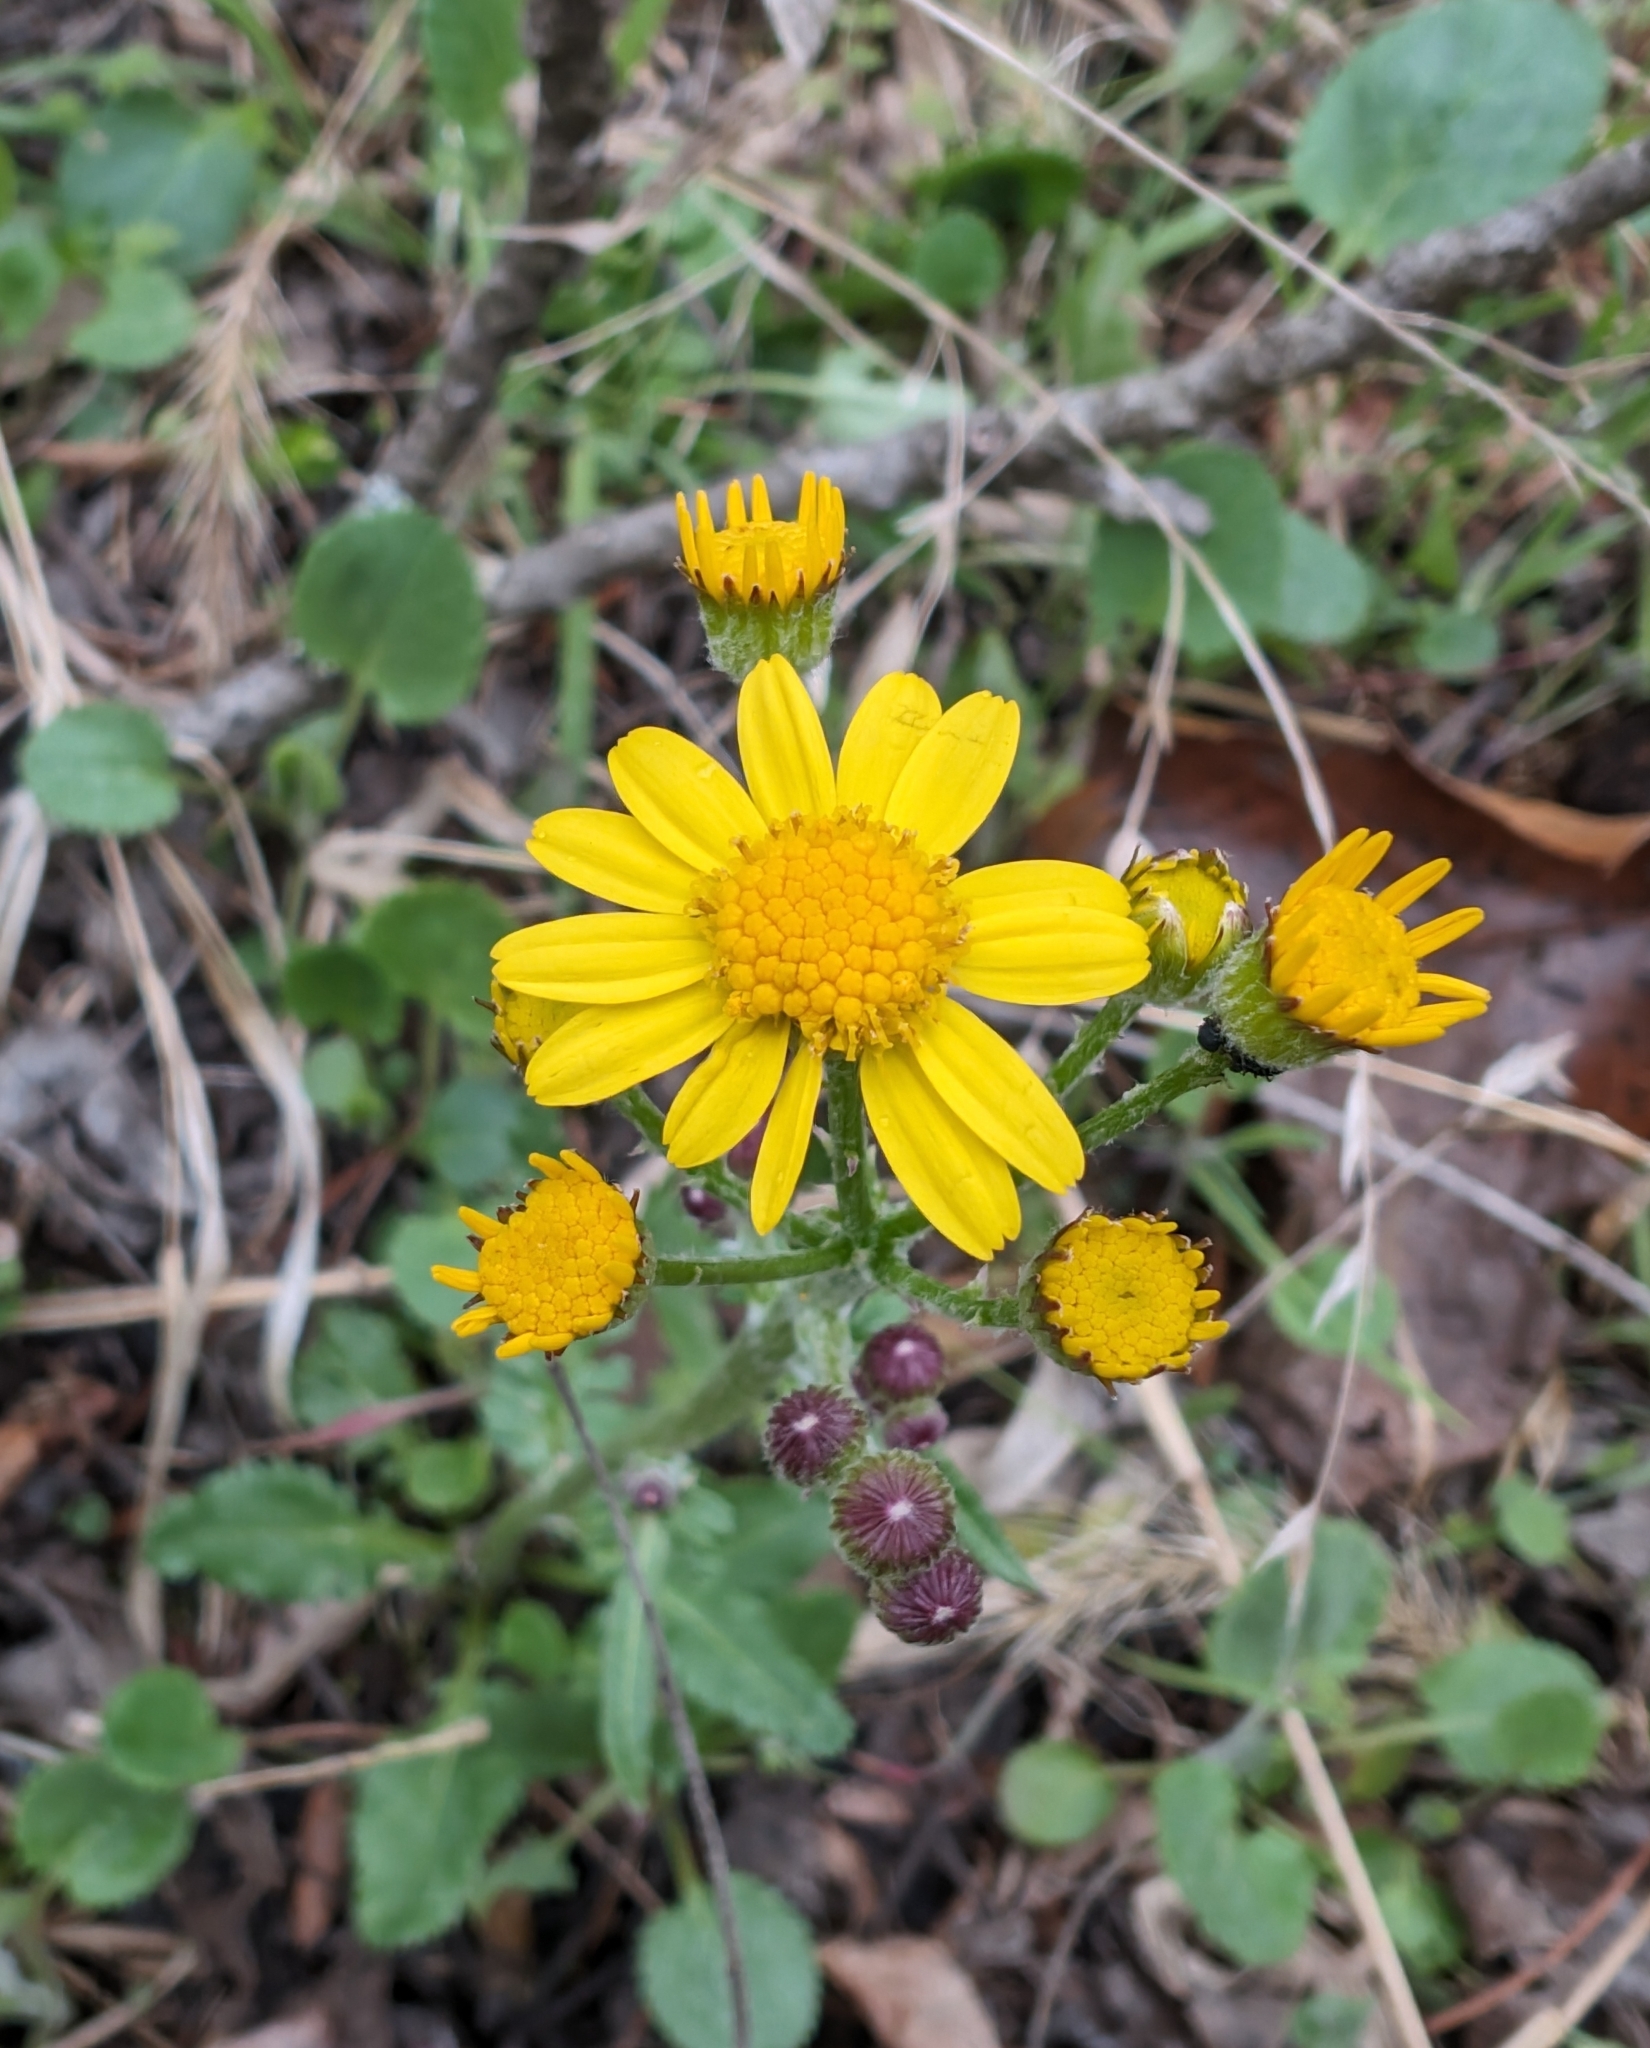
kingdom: Plantae
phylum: Tracheophyta
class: Magnoliopsida
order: Asterales
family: Asteraceae
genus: Packera
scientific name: Packera obovata
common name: Round-leaf ragwort
